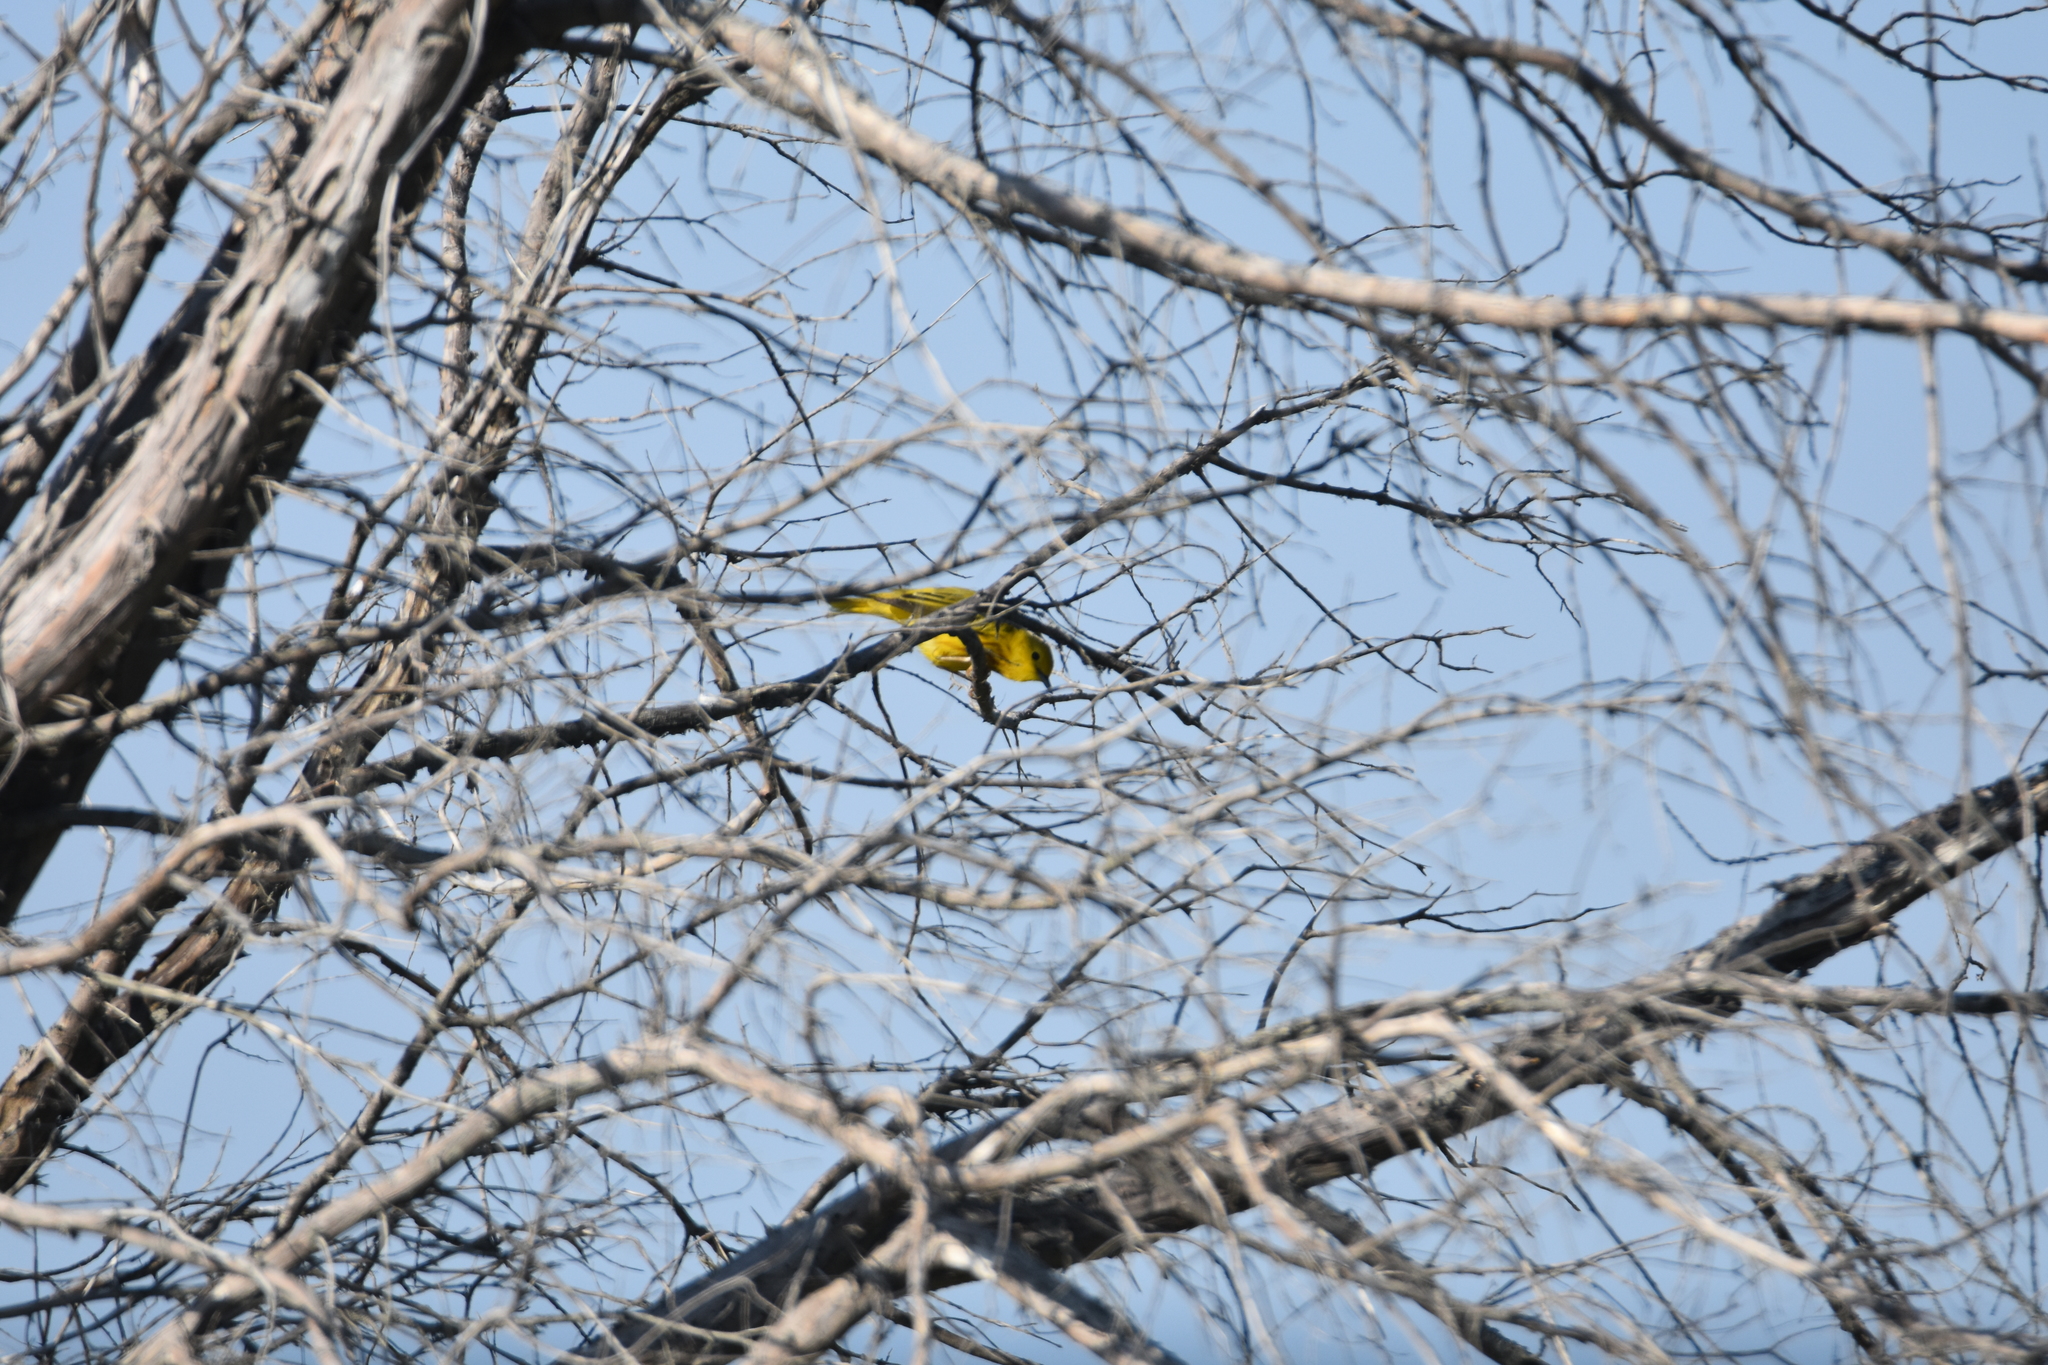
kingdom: Animalia
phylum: Chordata
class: Aves
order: Passeriformes
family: Parulidae
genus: Setophaga
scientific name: Setophaga petechia
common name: Yellow warbler
